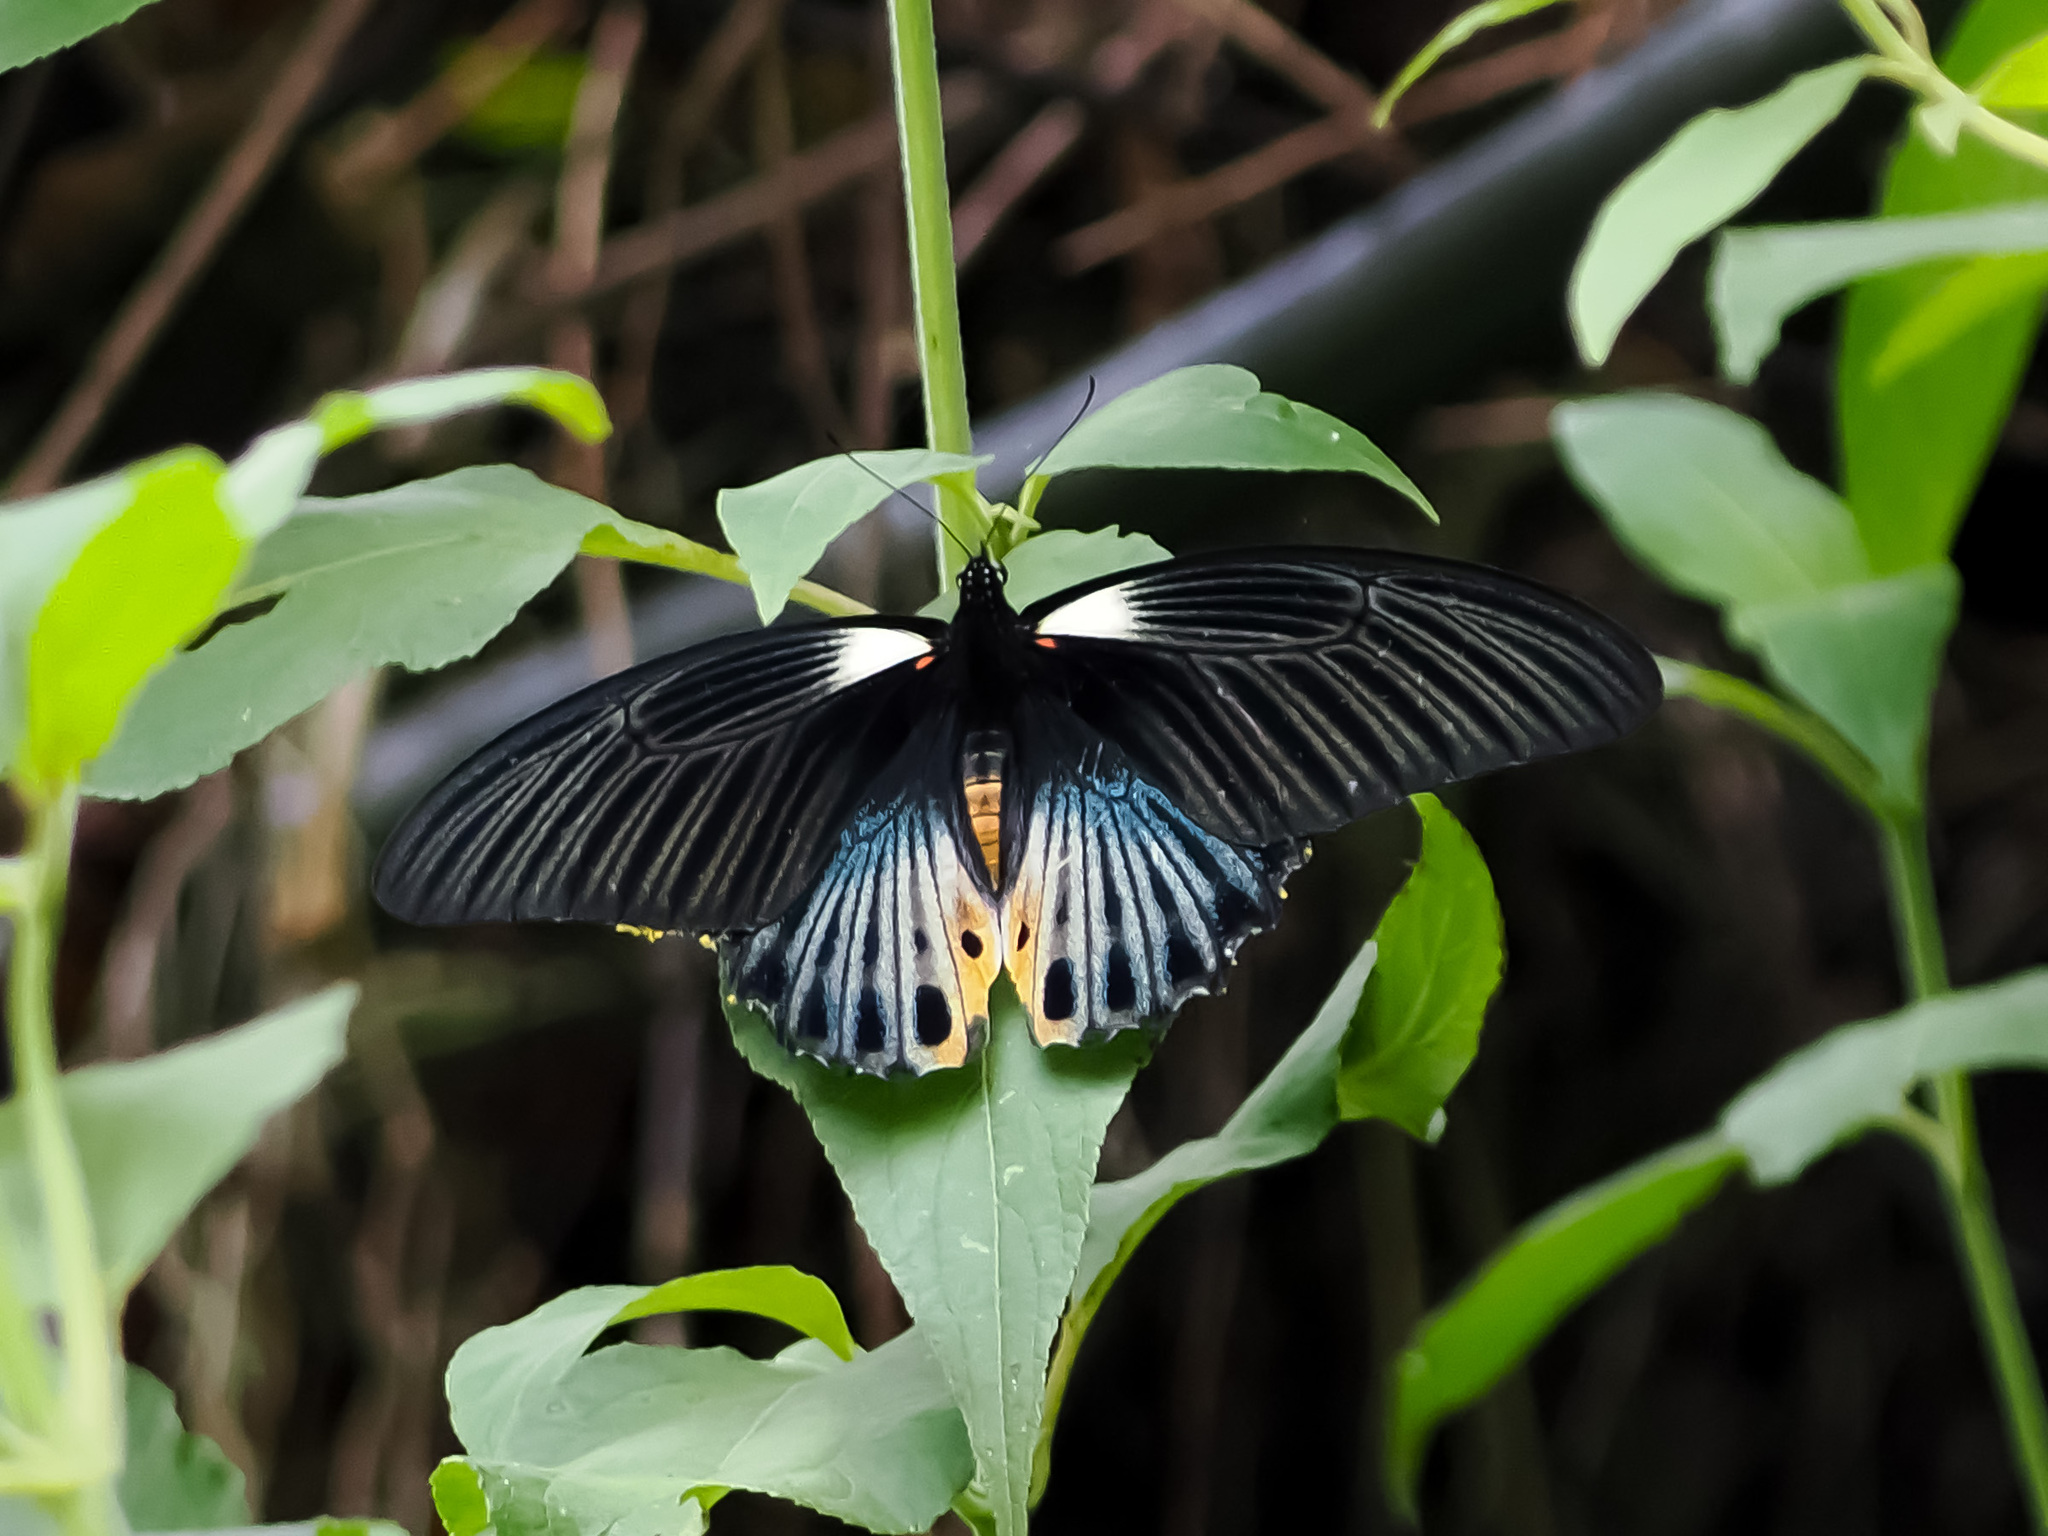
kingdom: Animalia
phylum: Arthropoda
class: Insecta
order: Lepidoptera
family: Papilionidae
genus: Papilio
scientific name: Papilio memnon
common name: Great mormon
